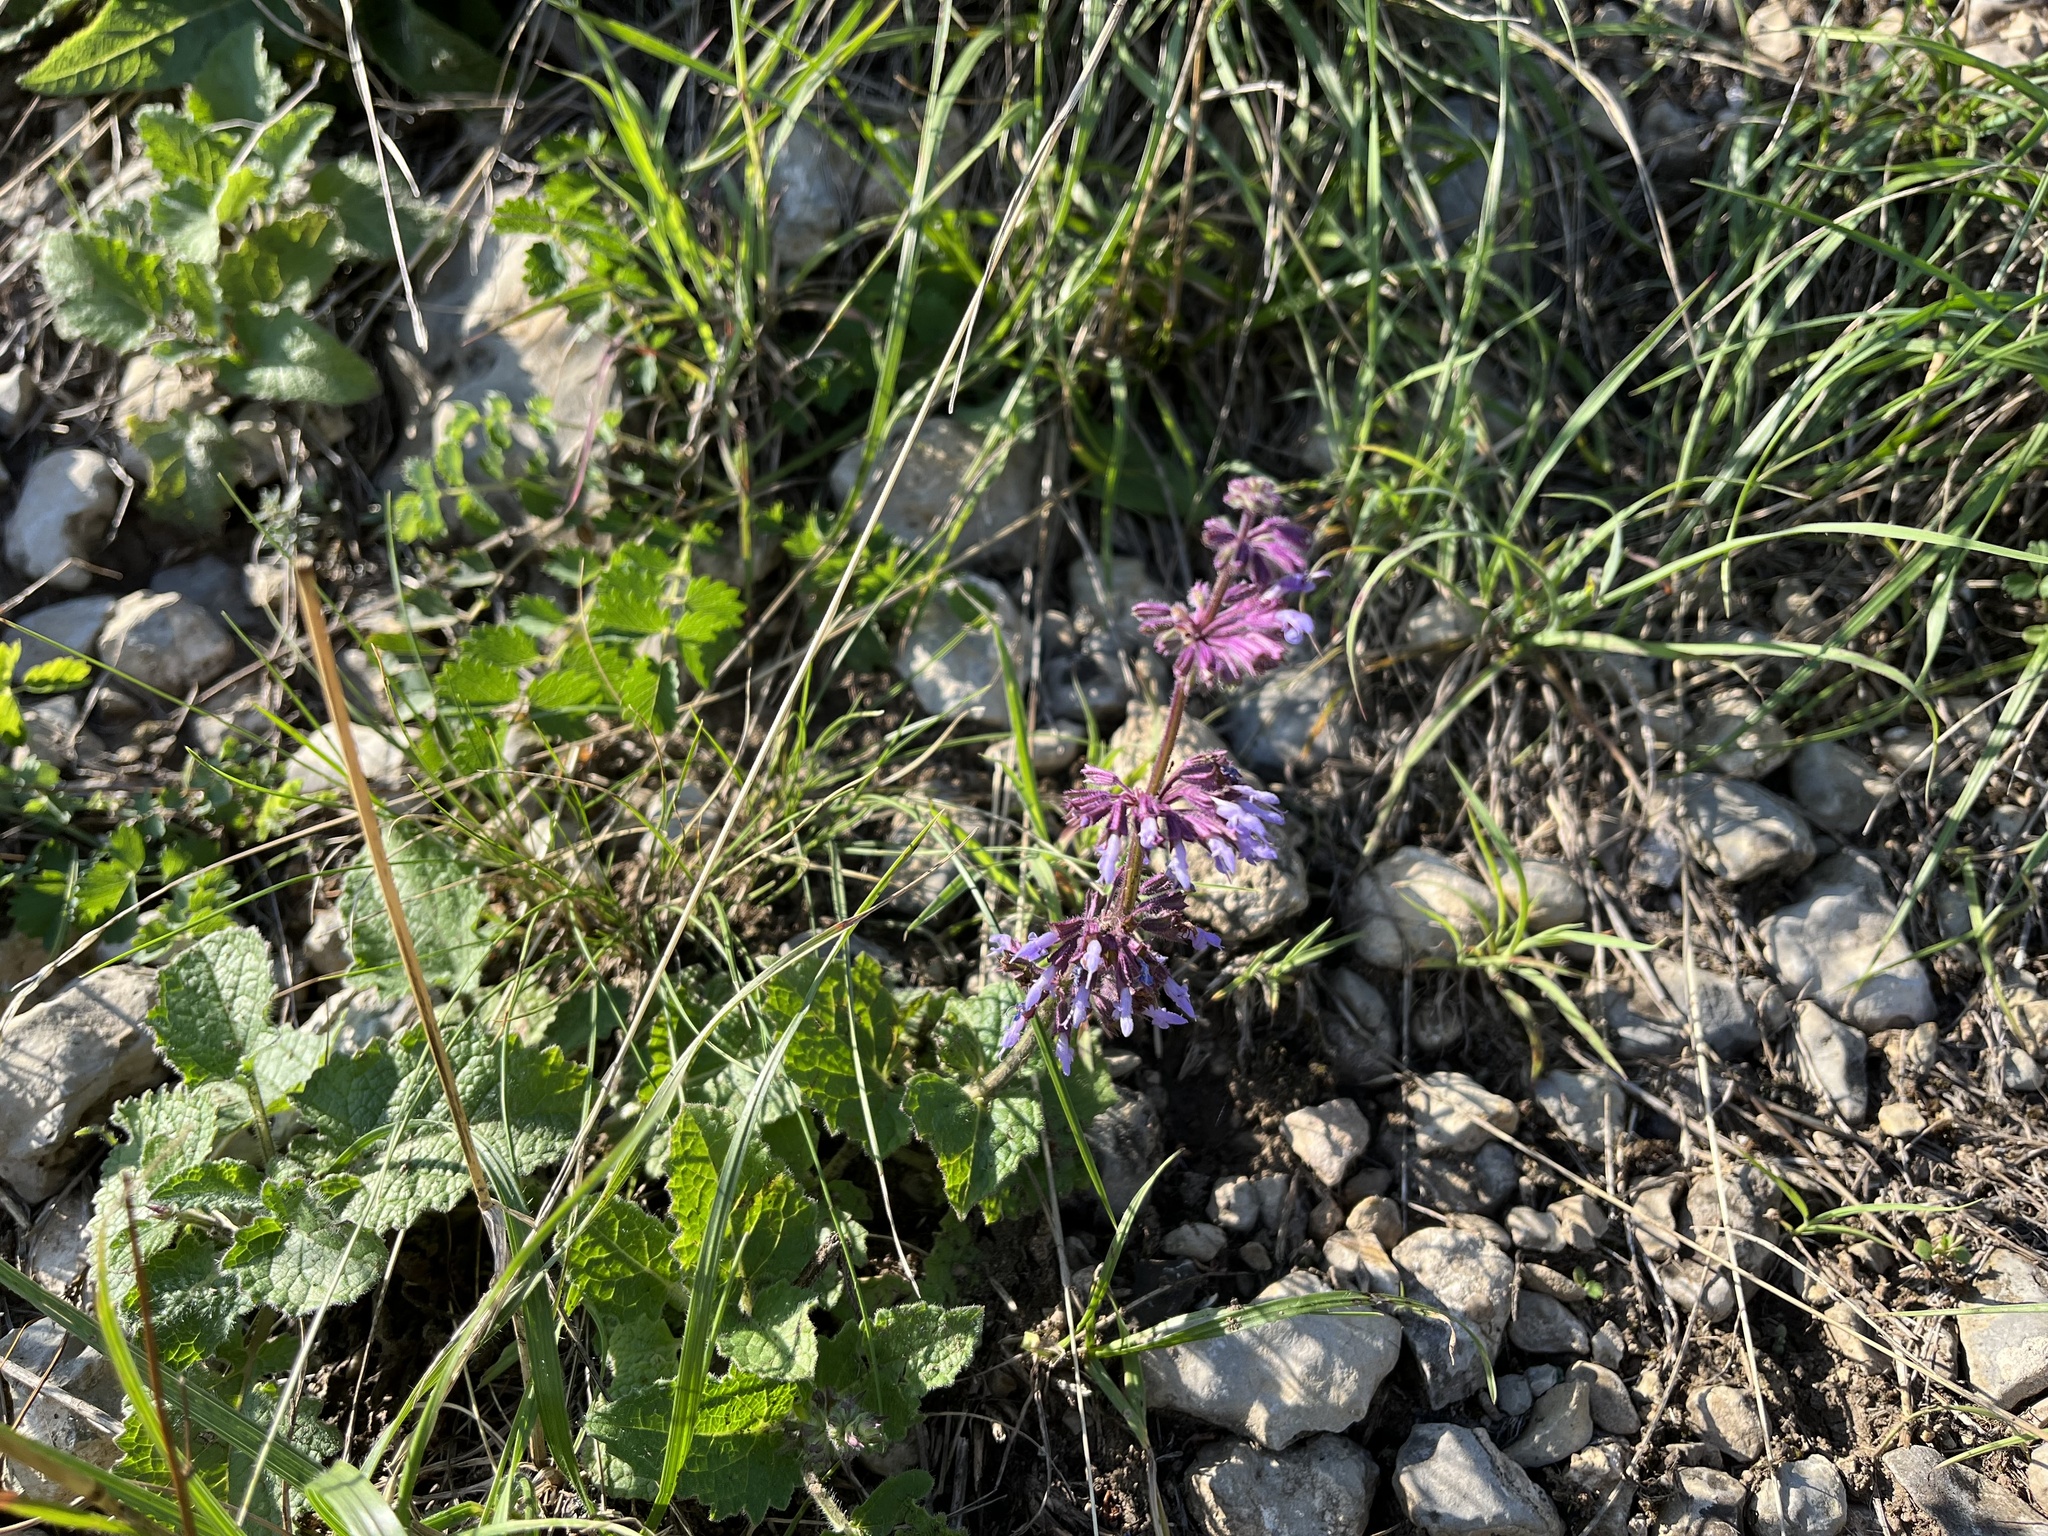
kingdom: Plantae
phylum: Tracheophyta
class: Magnoliopsida
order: Lamiales
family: Lamiaceae
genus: Salvia
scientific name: Salvia verticillata
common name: Whorled clary
